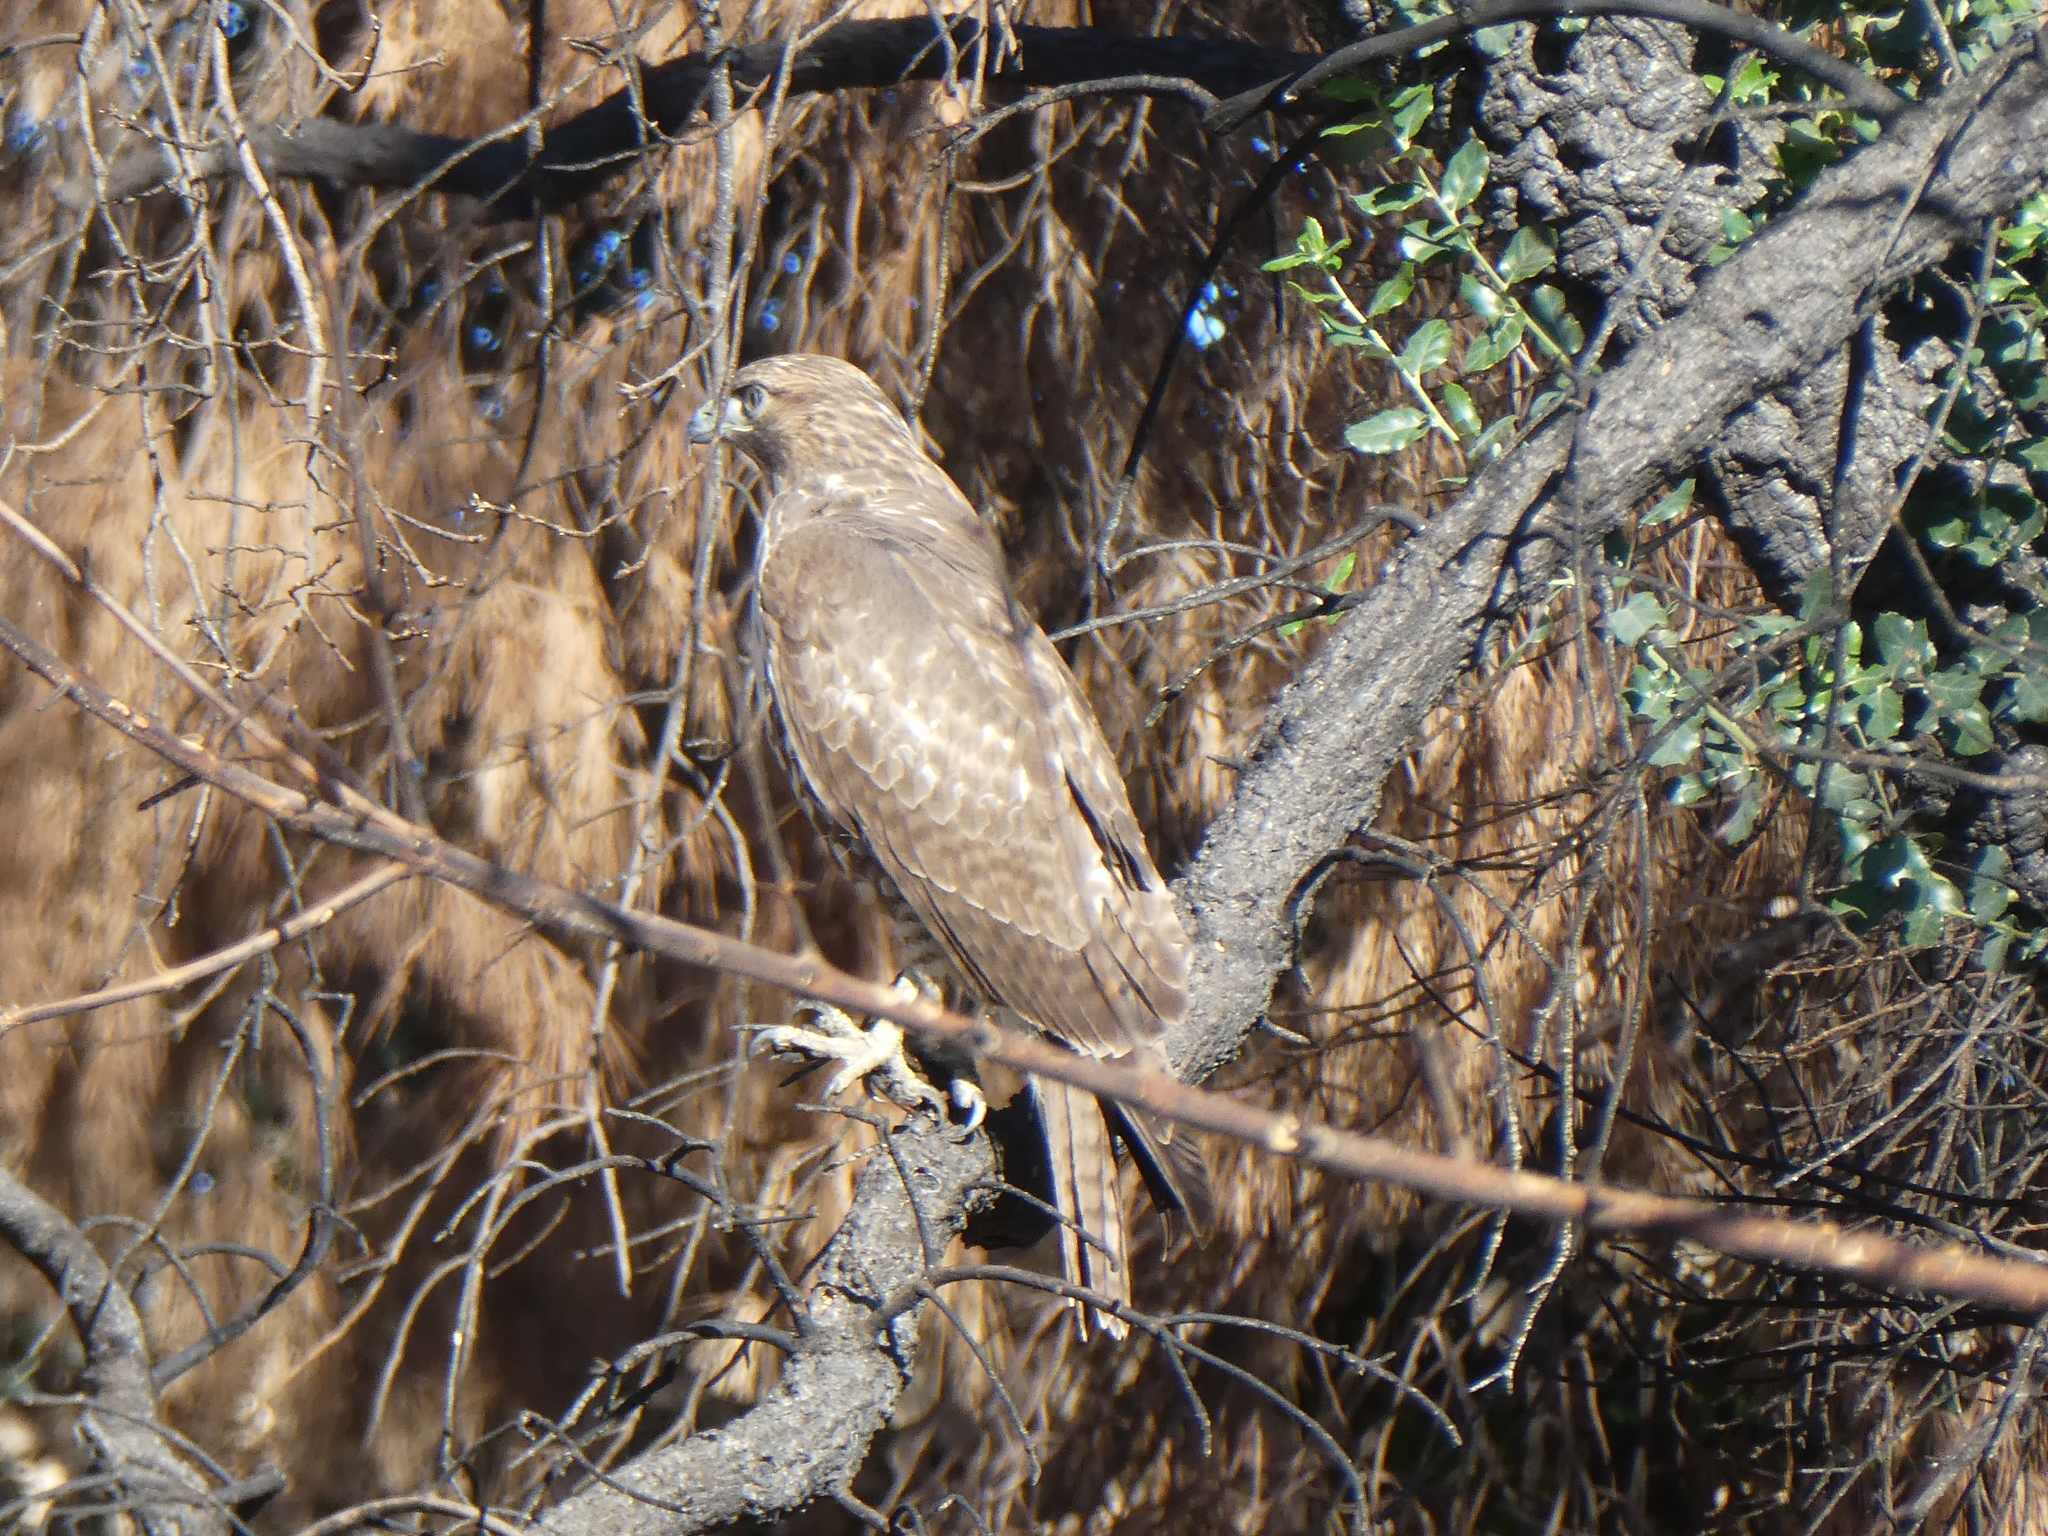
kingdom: Animalia
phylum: Chordata
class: Aves
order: Accipitriformes
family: Accipitridae
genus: Buteo
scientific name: Buteo jamaicensis
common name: Red-tailed hawk
